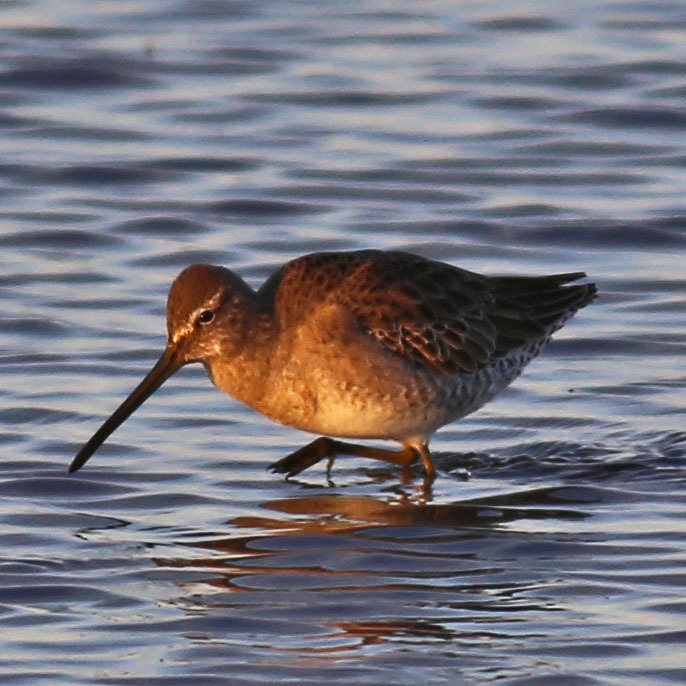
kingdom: Animalia
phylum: Chordata
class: Aves
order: Charadriiformes
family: Scolopacidae
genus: Limnodromus
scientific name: Limnodromus scolopaceus
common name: Long-billed dowitcher
